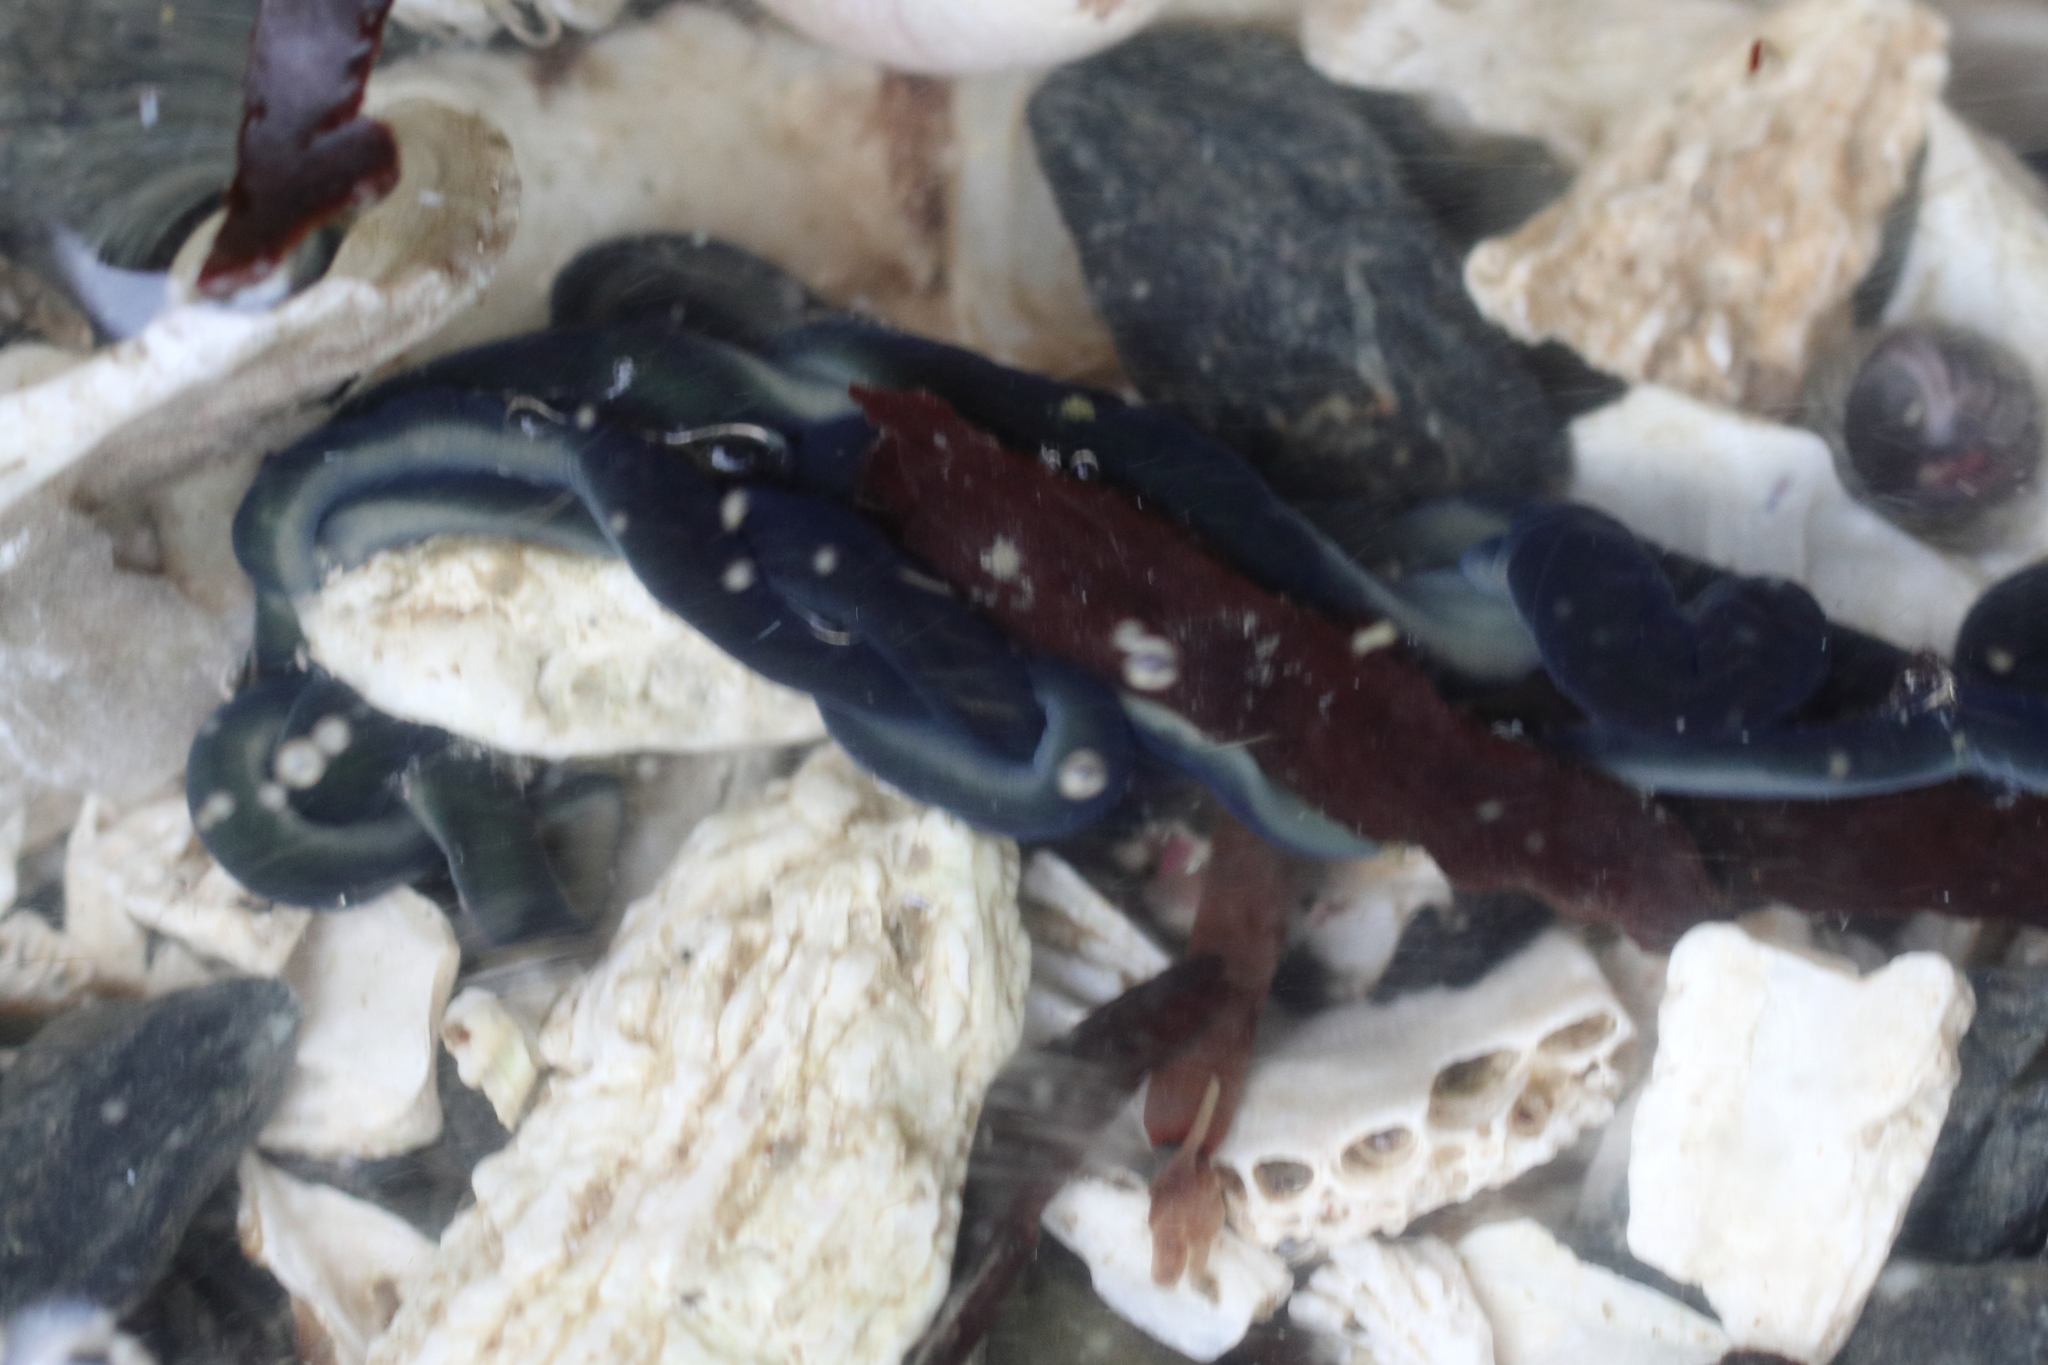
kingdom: Animalia
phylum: Nemertea
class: Hoplonemertea
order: Monostilifera
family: Emplectonematidae
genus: Emplectonema
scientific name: Emplectonema gracile
